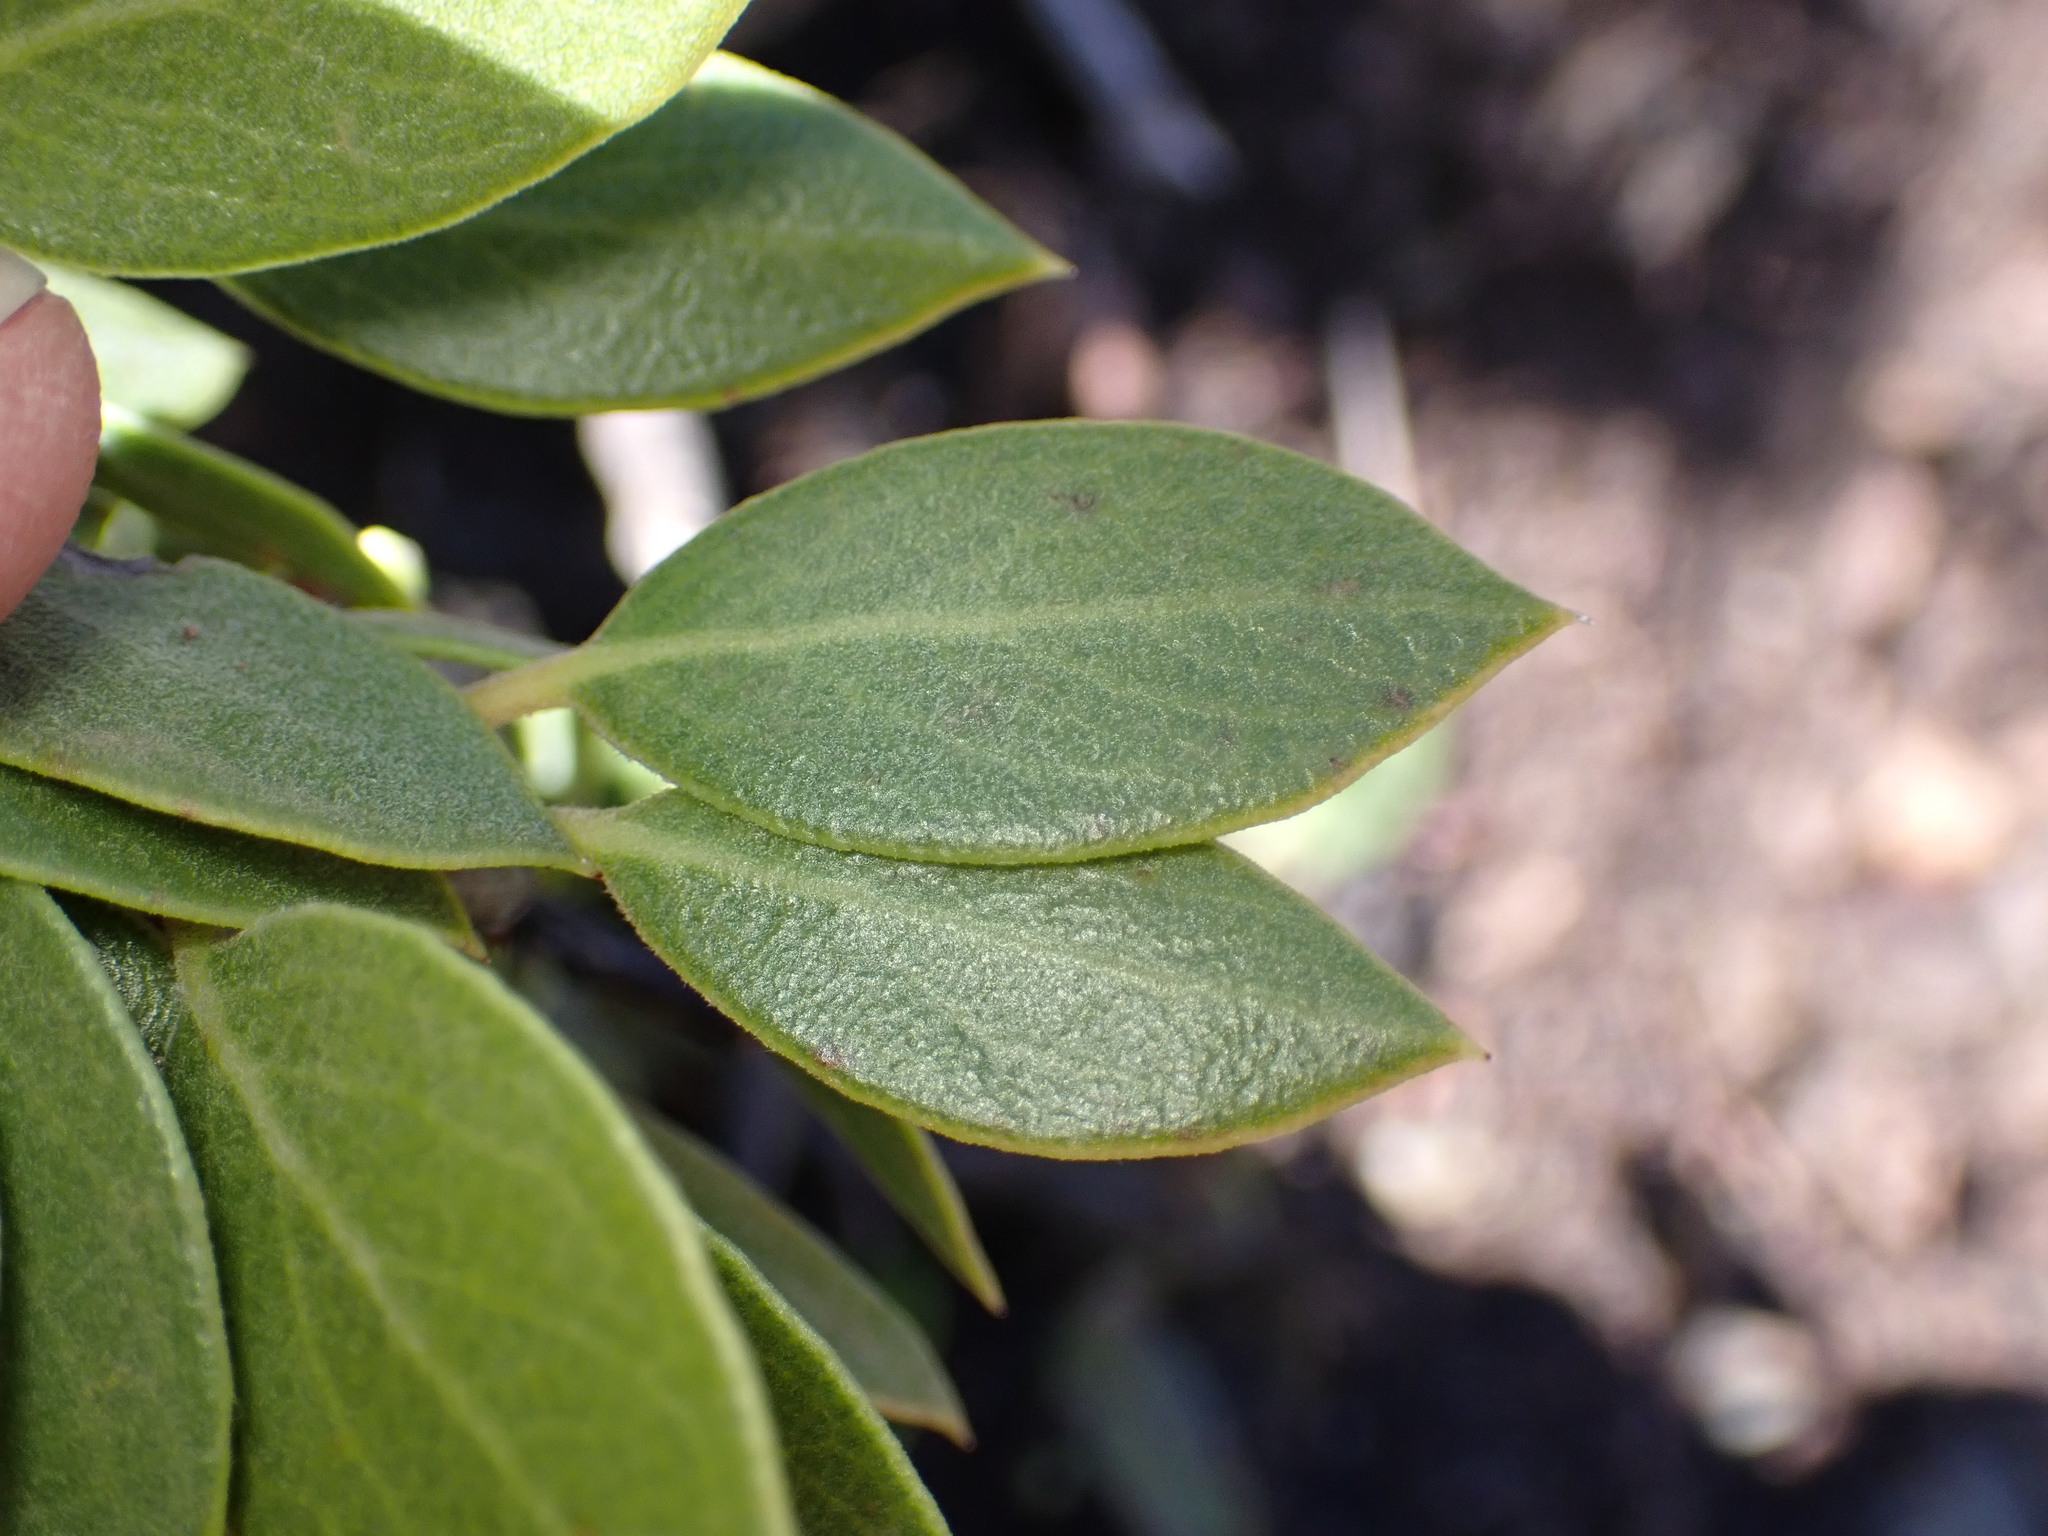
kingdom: Plantae
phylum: Tracheophyta
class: Magnoliopsida
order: Ericales
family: Ericaceae
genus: Arctostaphylos
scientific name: Arctostaphylos montana
